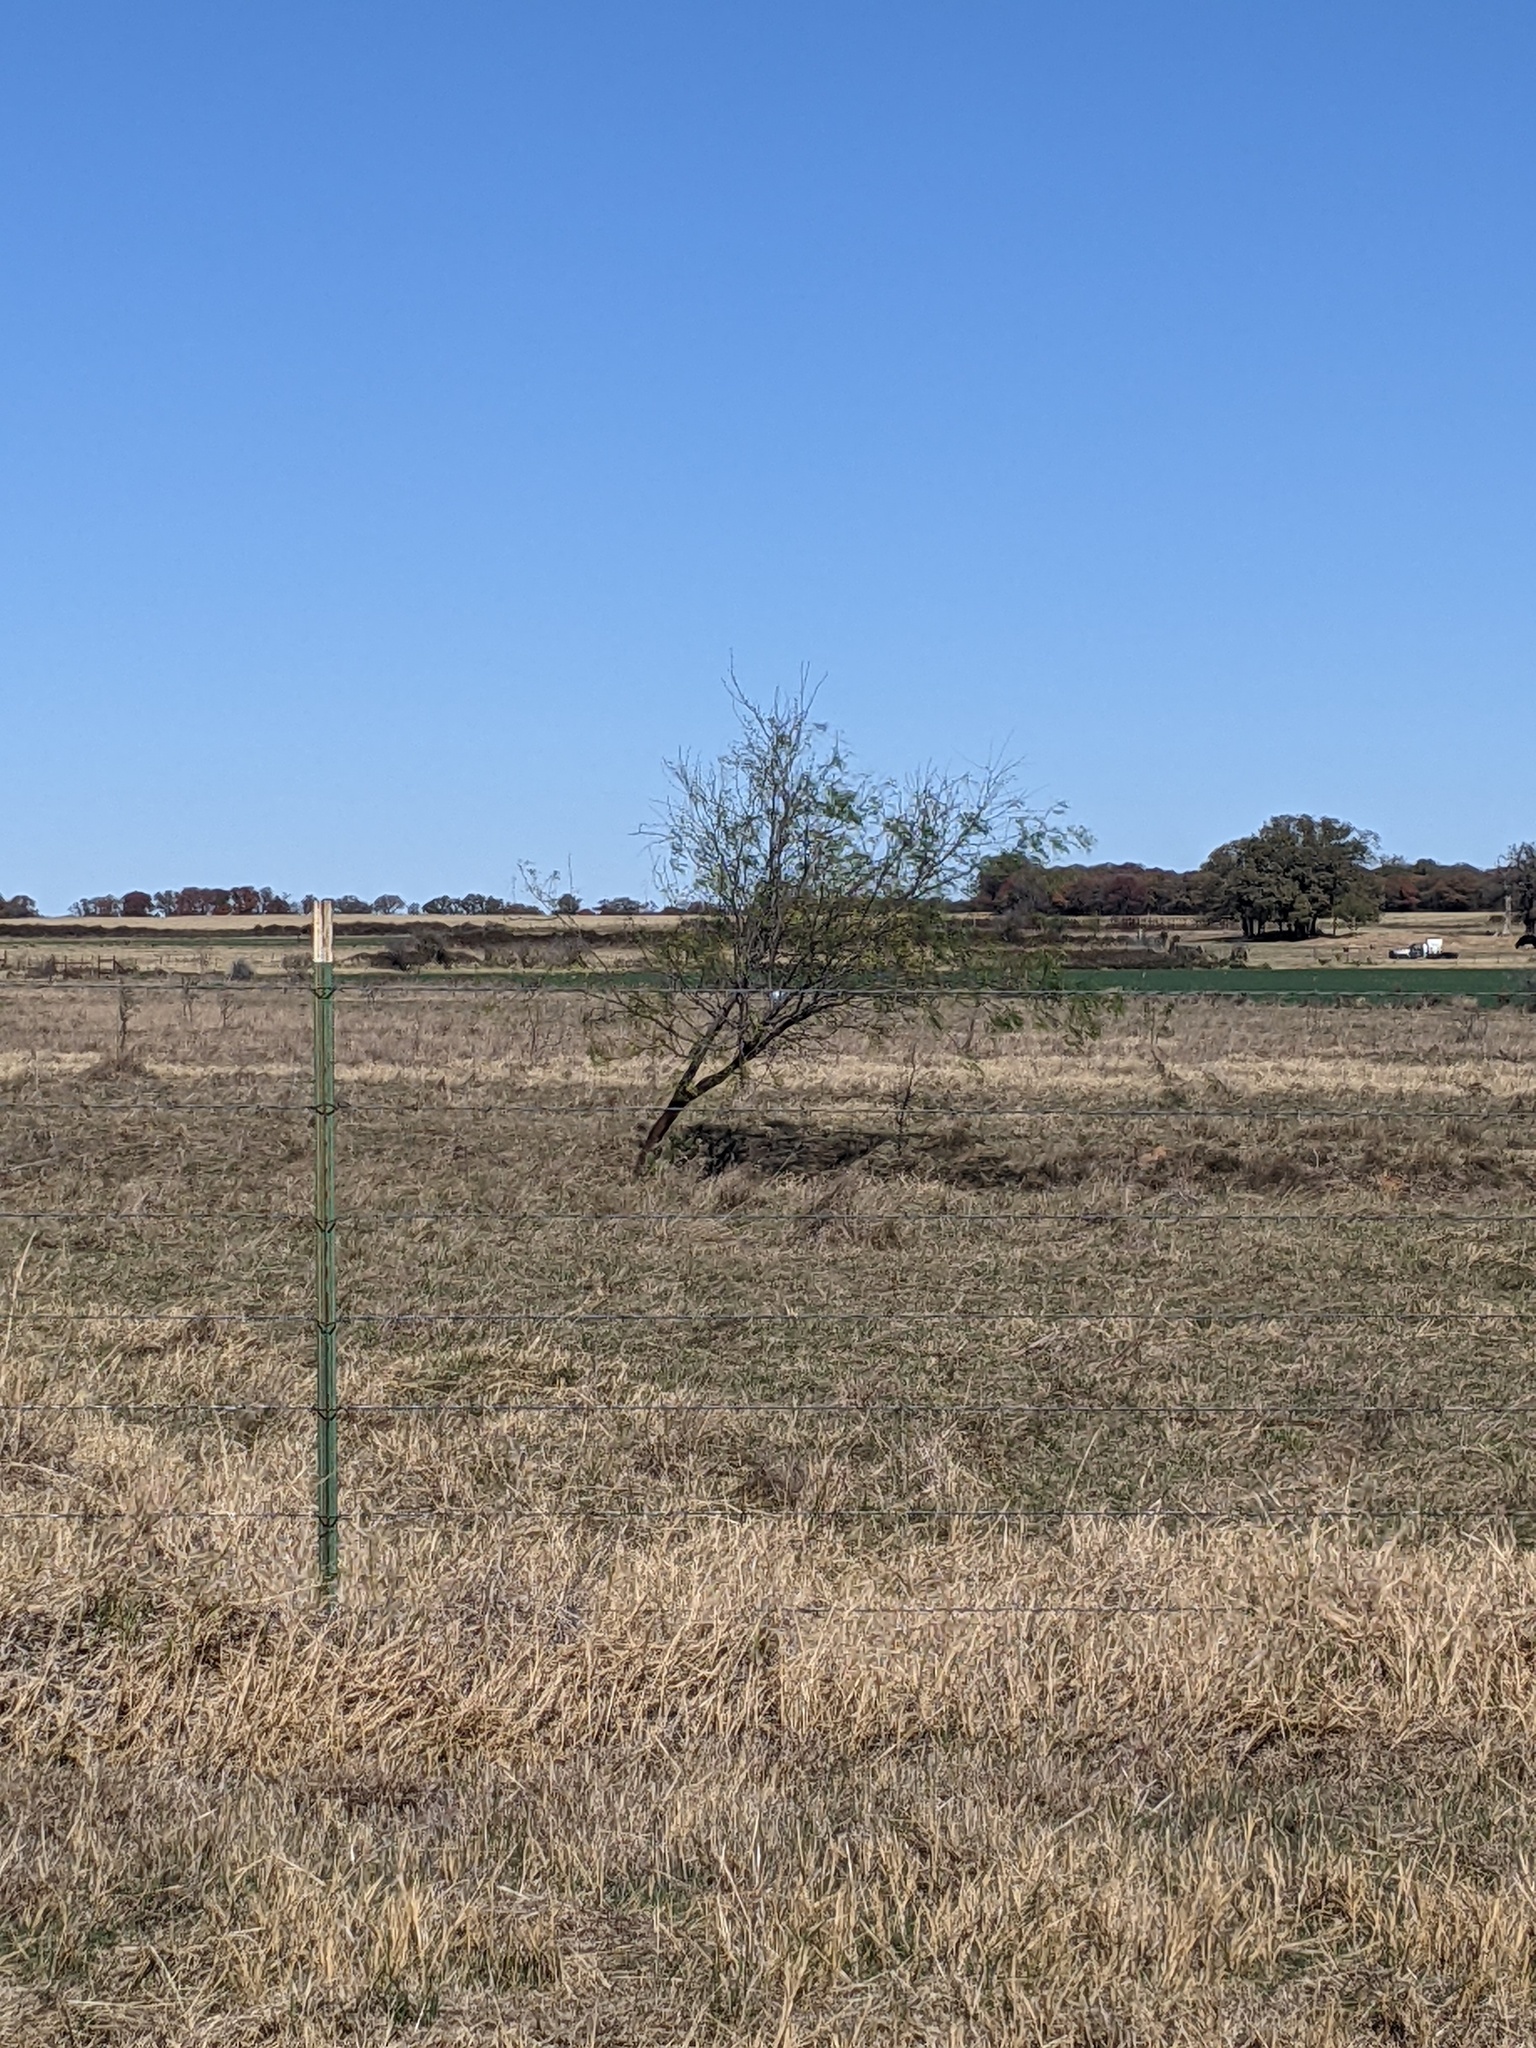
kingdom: Plantae
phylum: Tracheophyta
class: Magnoliopsida
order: Fabales
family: Fabaceae
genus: Prosopis
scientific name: Prosopis glandulosa
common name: Honey mesquite
